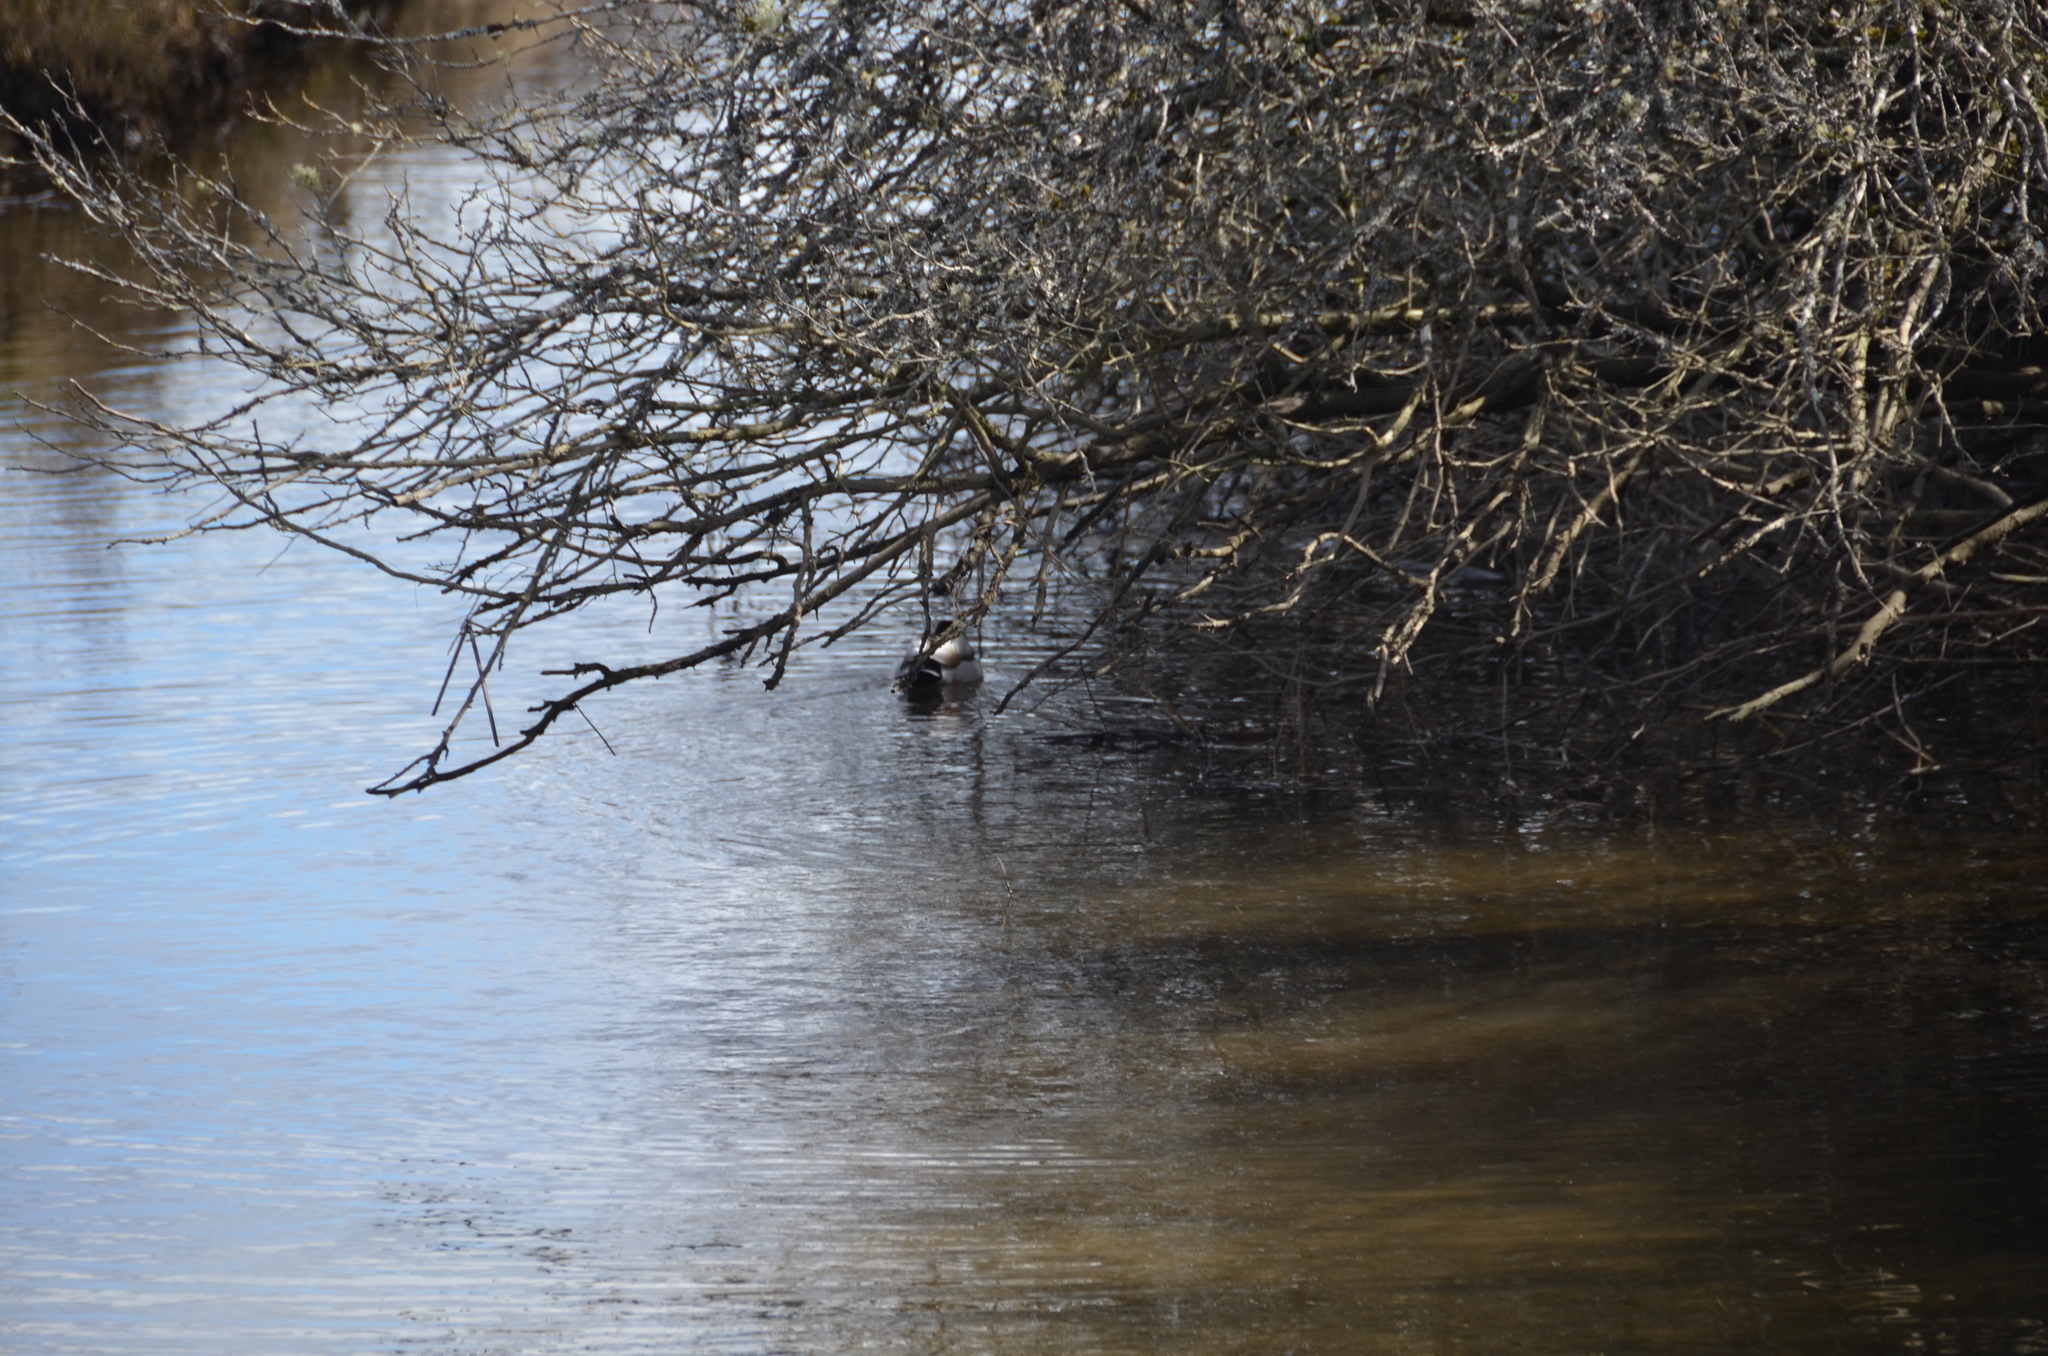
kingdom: Animalia
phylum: Chordata
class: Aves
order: Anseriformes
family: Anatidae
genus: Anas
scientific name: Anas platyrhynchos
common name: Mallard
